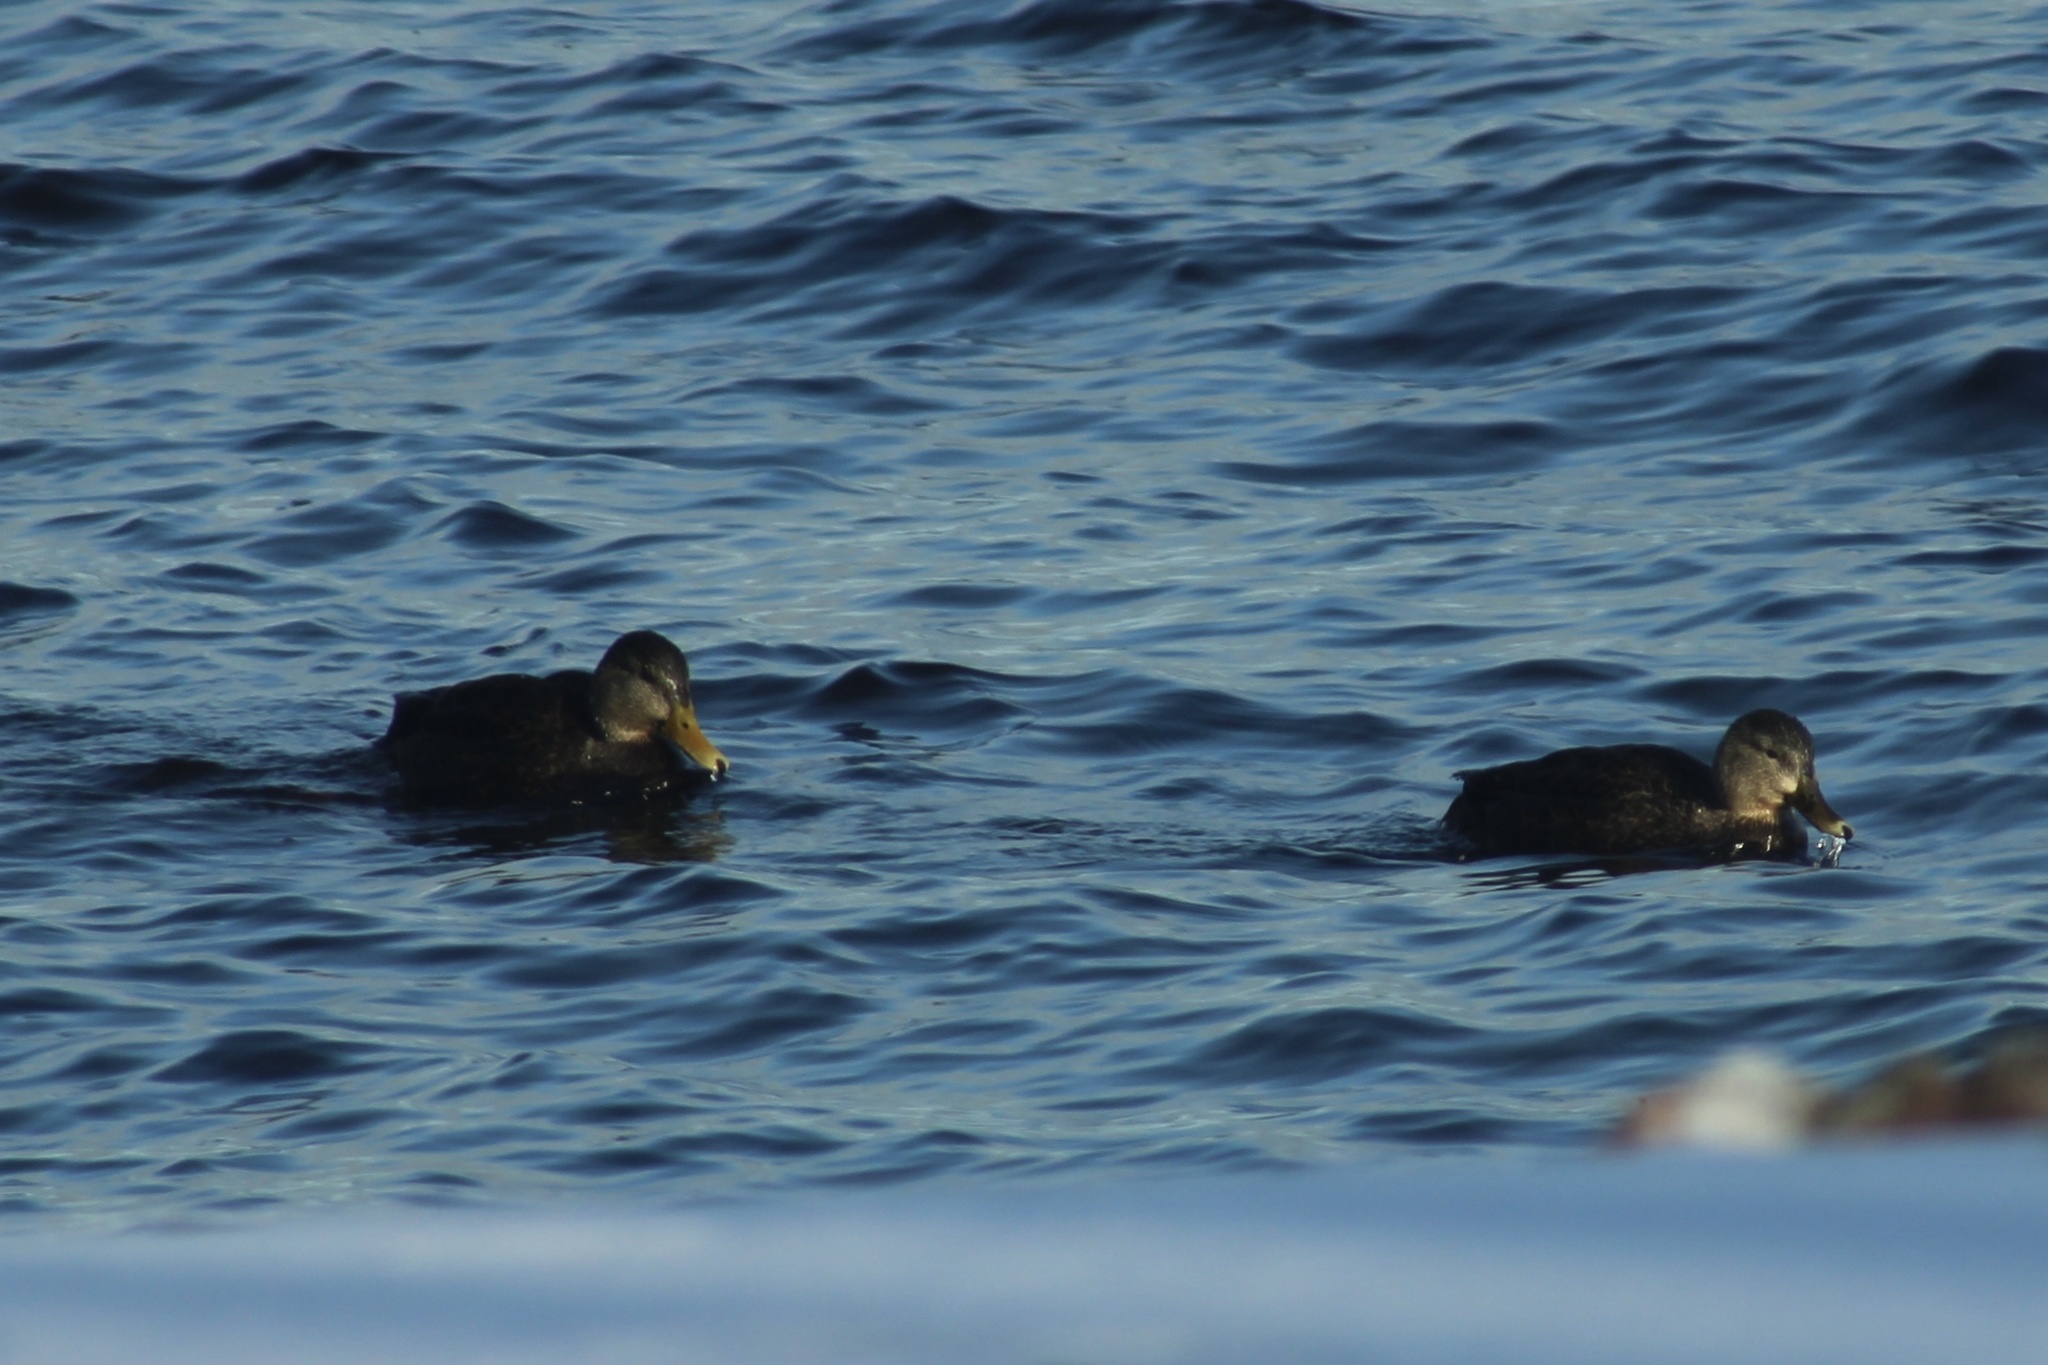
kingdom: Animalia
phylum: Chordata
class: Aves
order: Anseriformes
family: Anatidae
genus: Anas
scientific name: Anas rubripes
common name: American black duck
